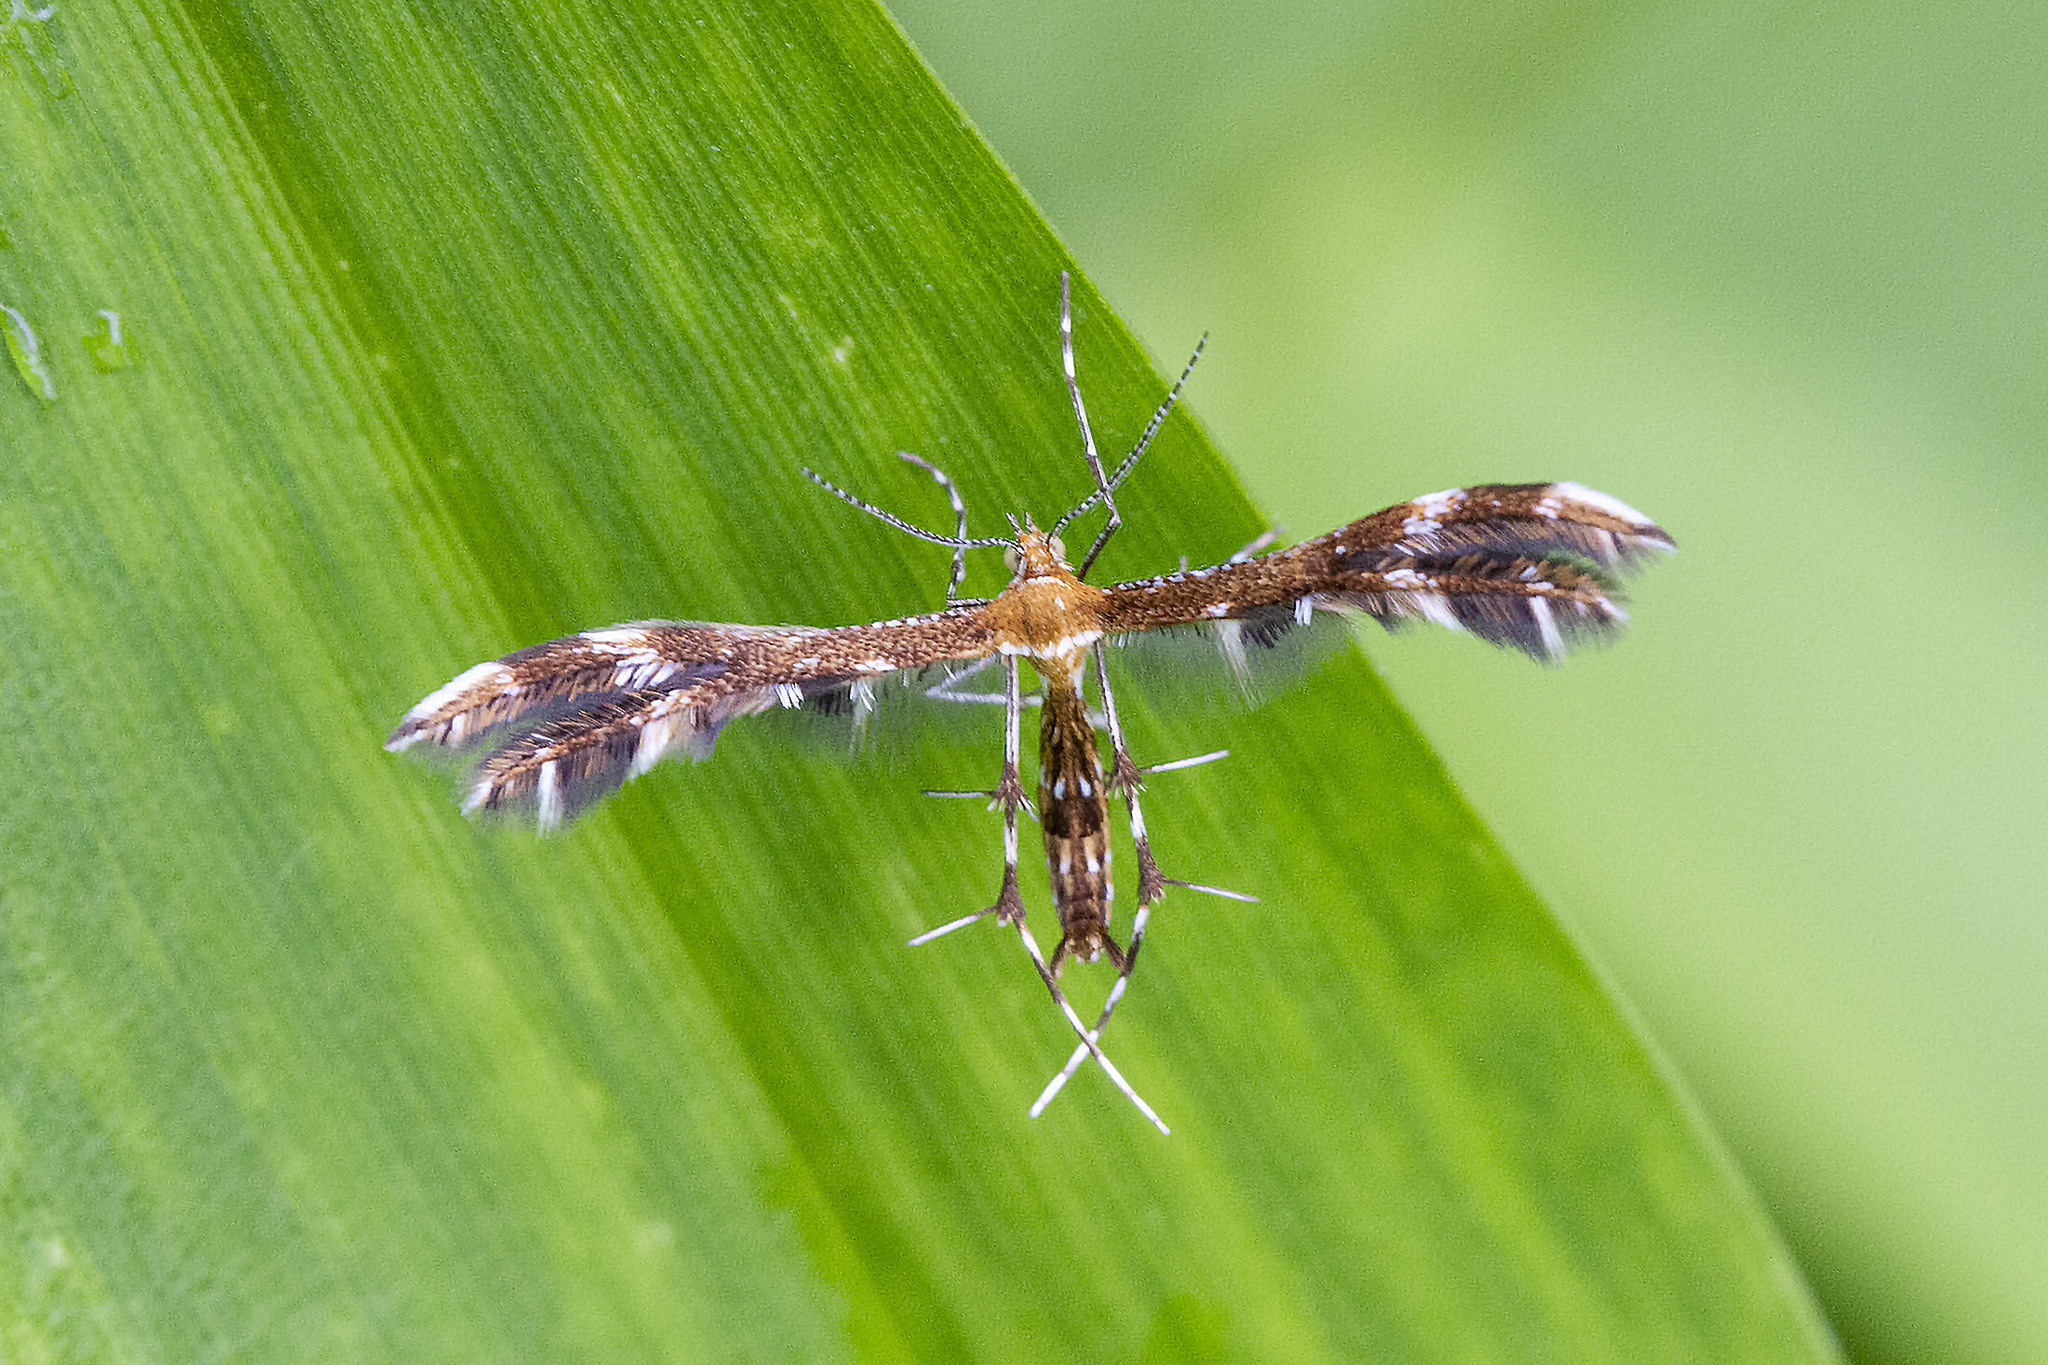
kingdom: Animalia
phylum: Arthropoda
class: Insecta
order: Lepidoptera
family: Pterophoridae
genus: Dejongia
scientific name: Dejongia lobidactylus
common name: Lobed plume moth
